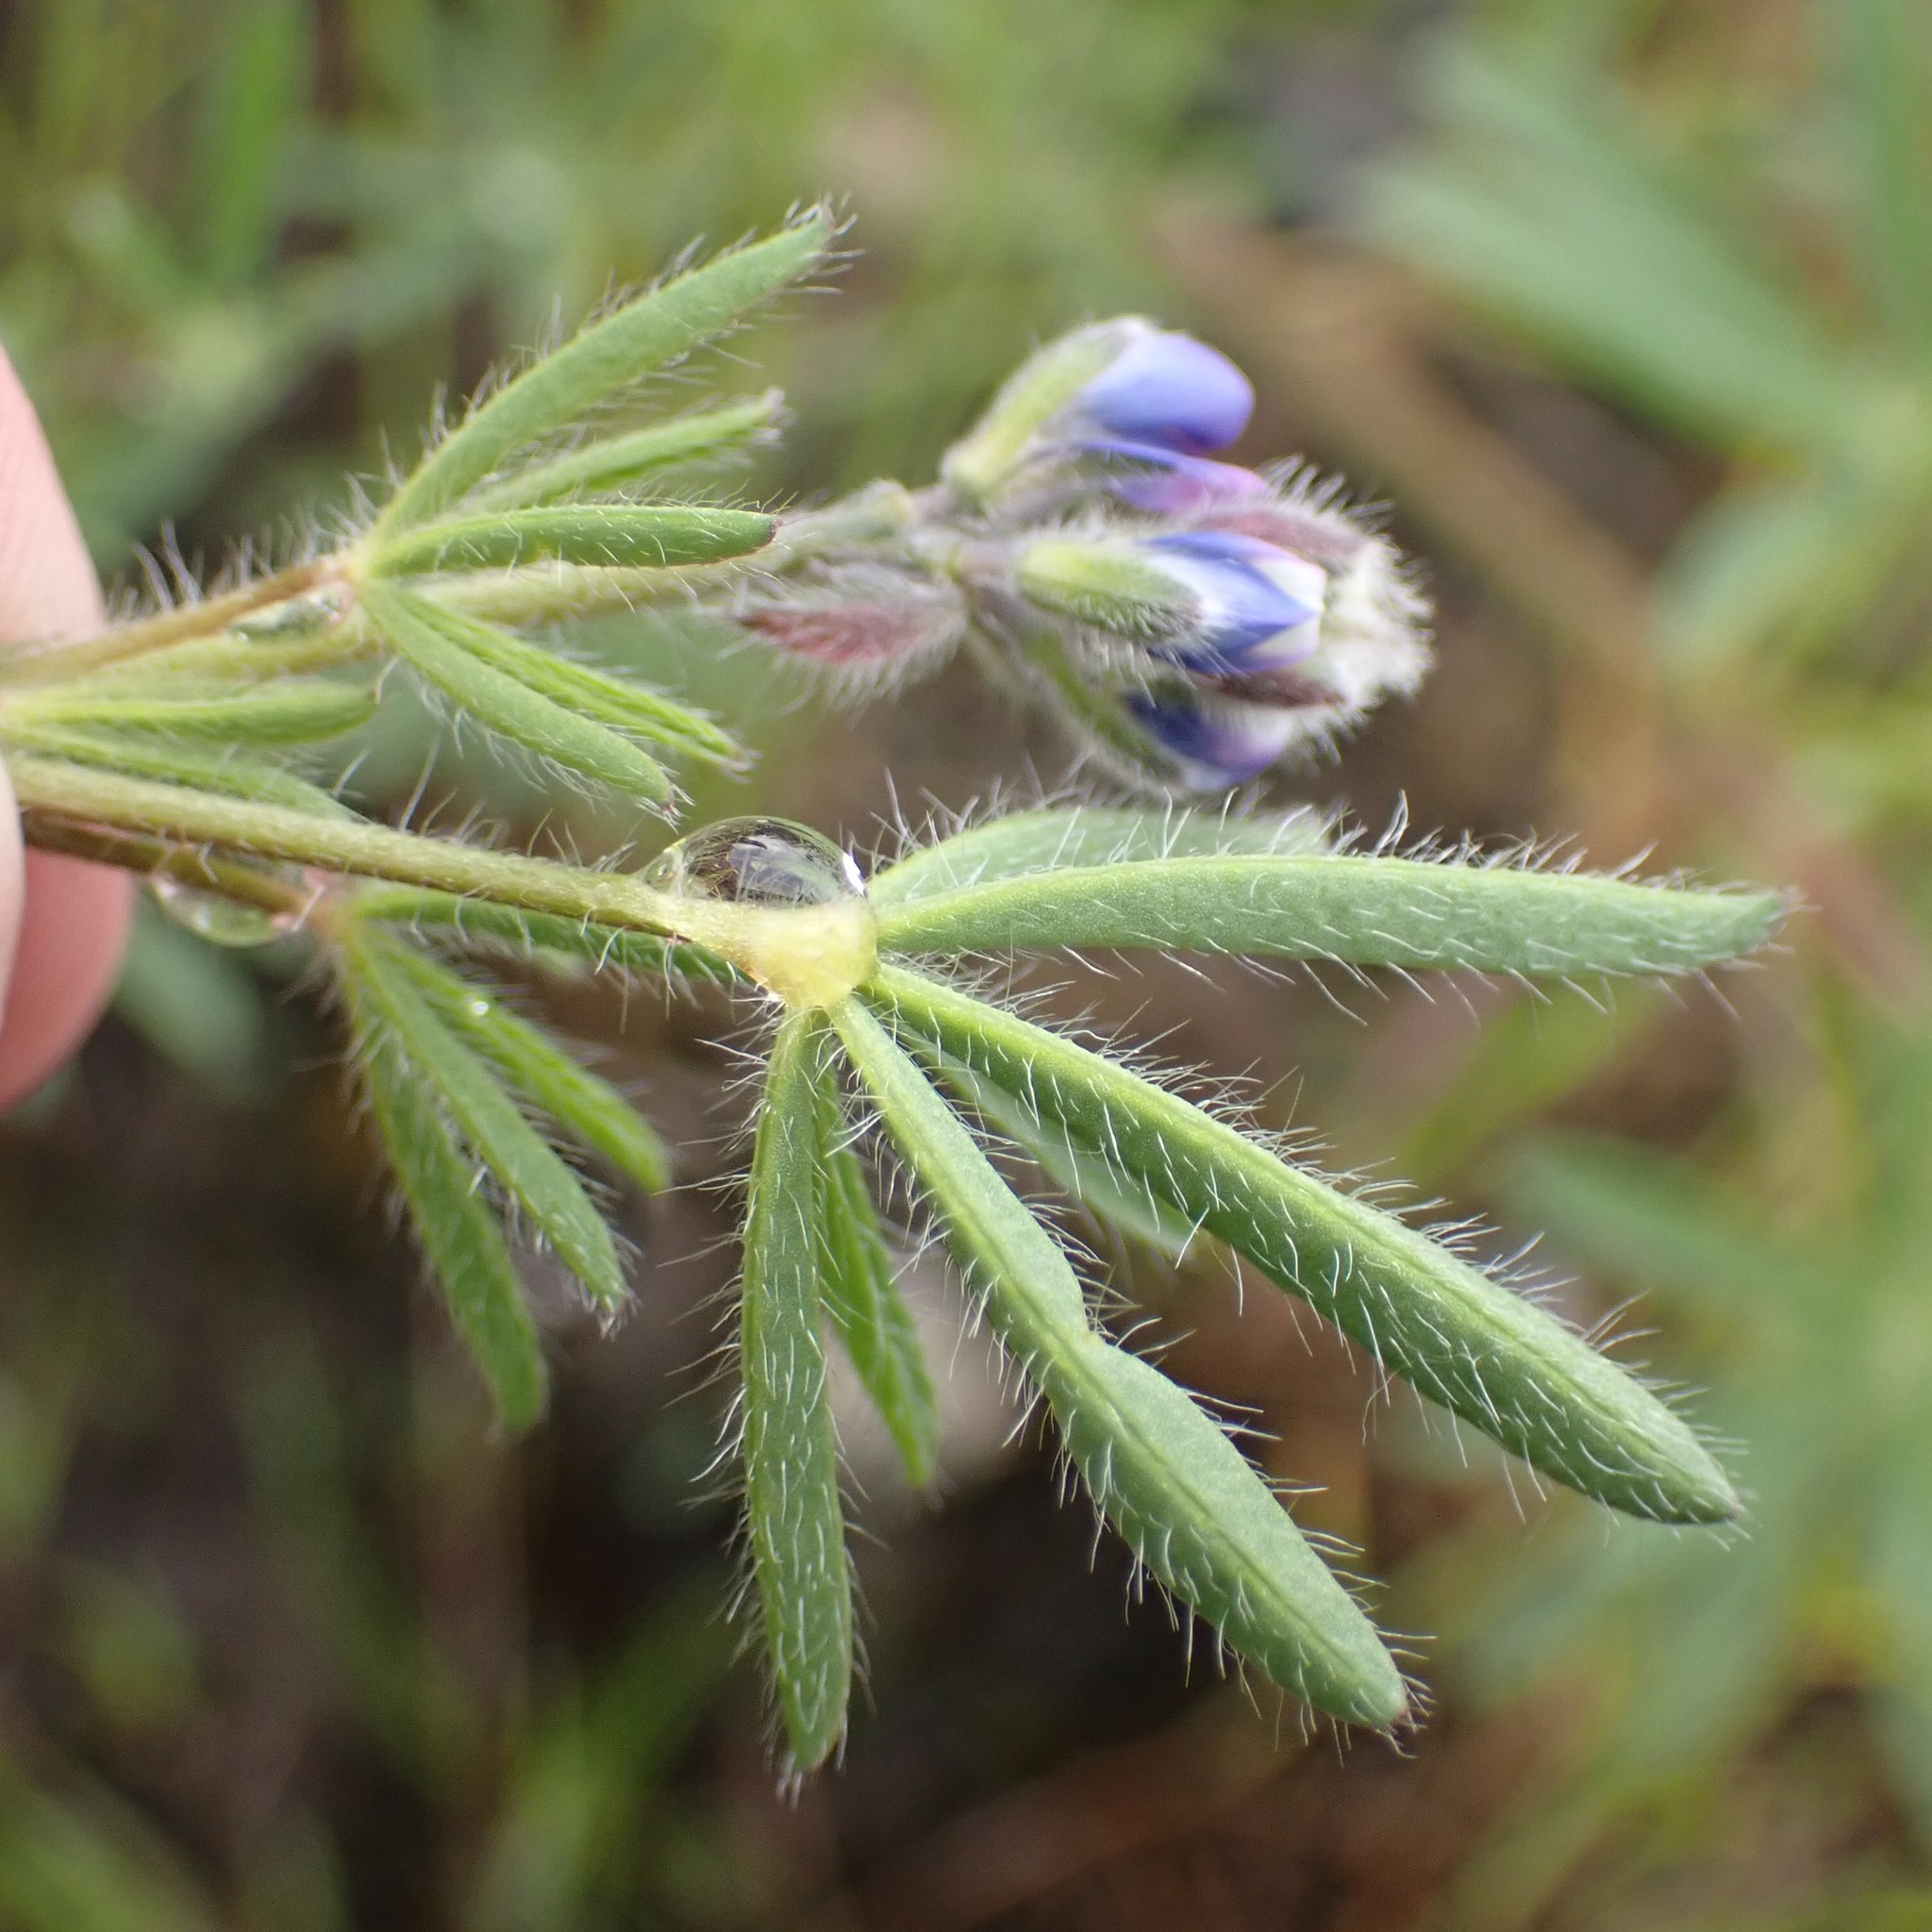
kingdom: Plantae
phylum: Tracheophyta
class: Magnoliopsida
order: Fabales
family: Fabaceae
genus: Lupinus
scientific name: Lupinus bicolor
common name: Miniature lupine
